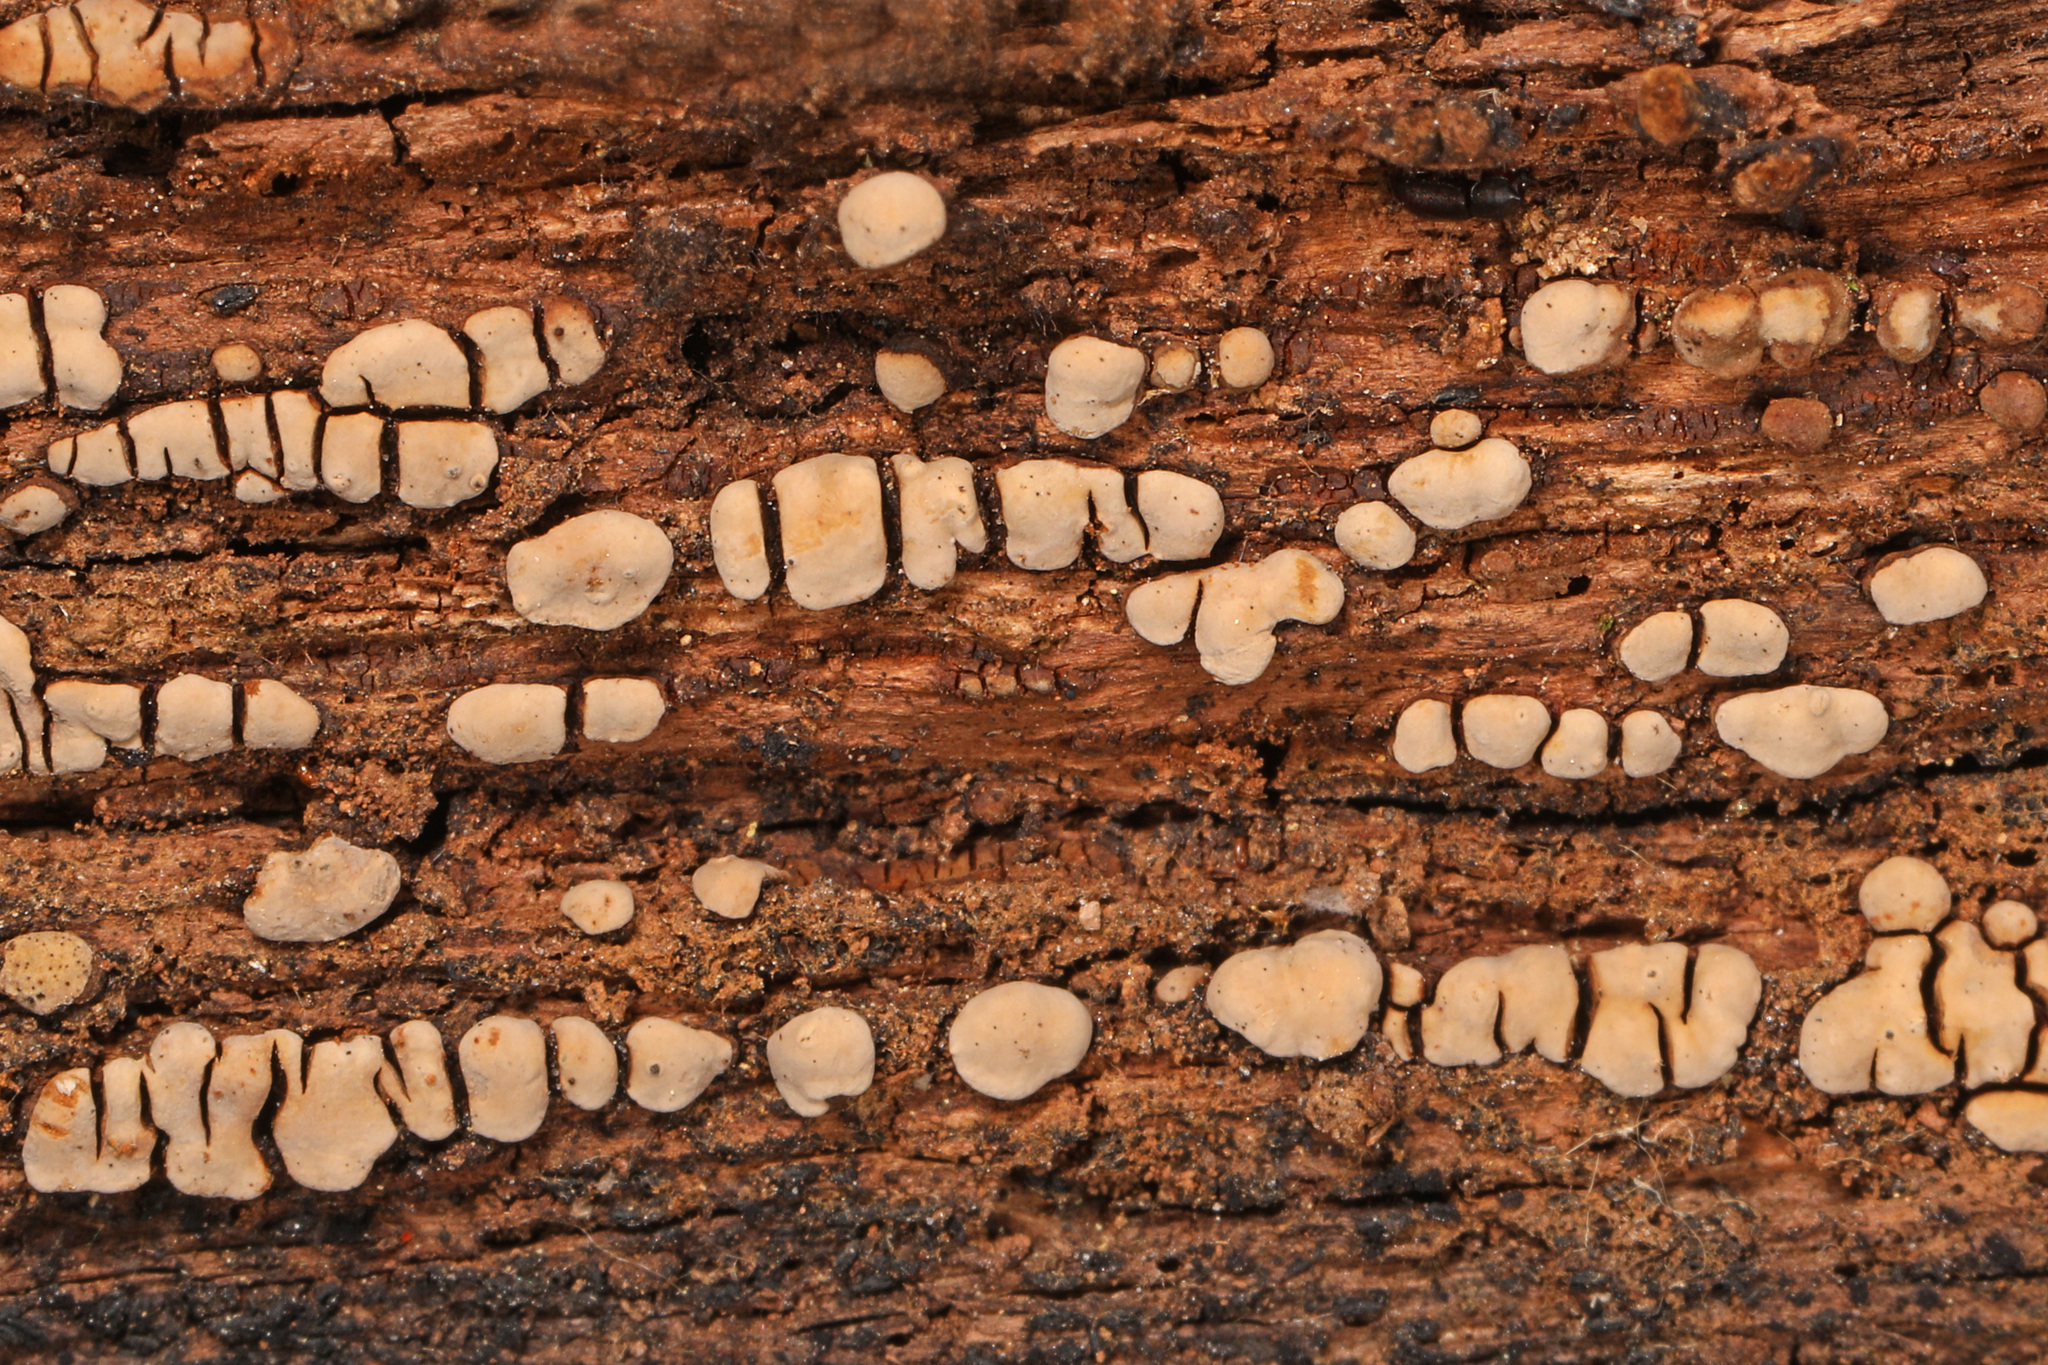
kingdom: Fungi
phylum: Basidiomycota
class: Agaricomycetes
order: Russulales
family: Stereaceae
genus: Xylobolus
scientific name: Xylobolus frustulatus
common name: Ceramic parchment
